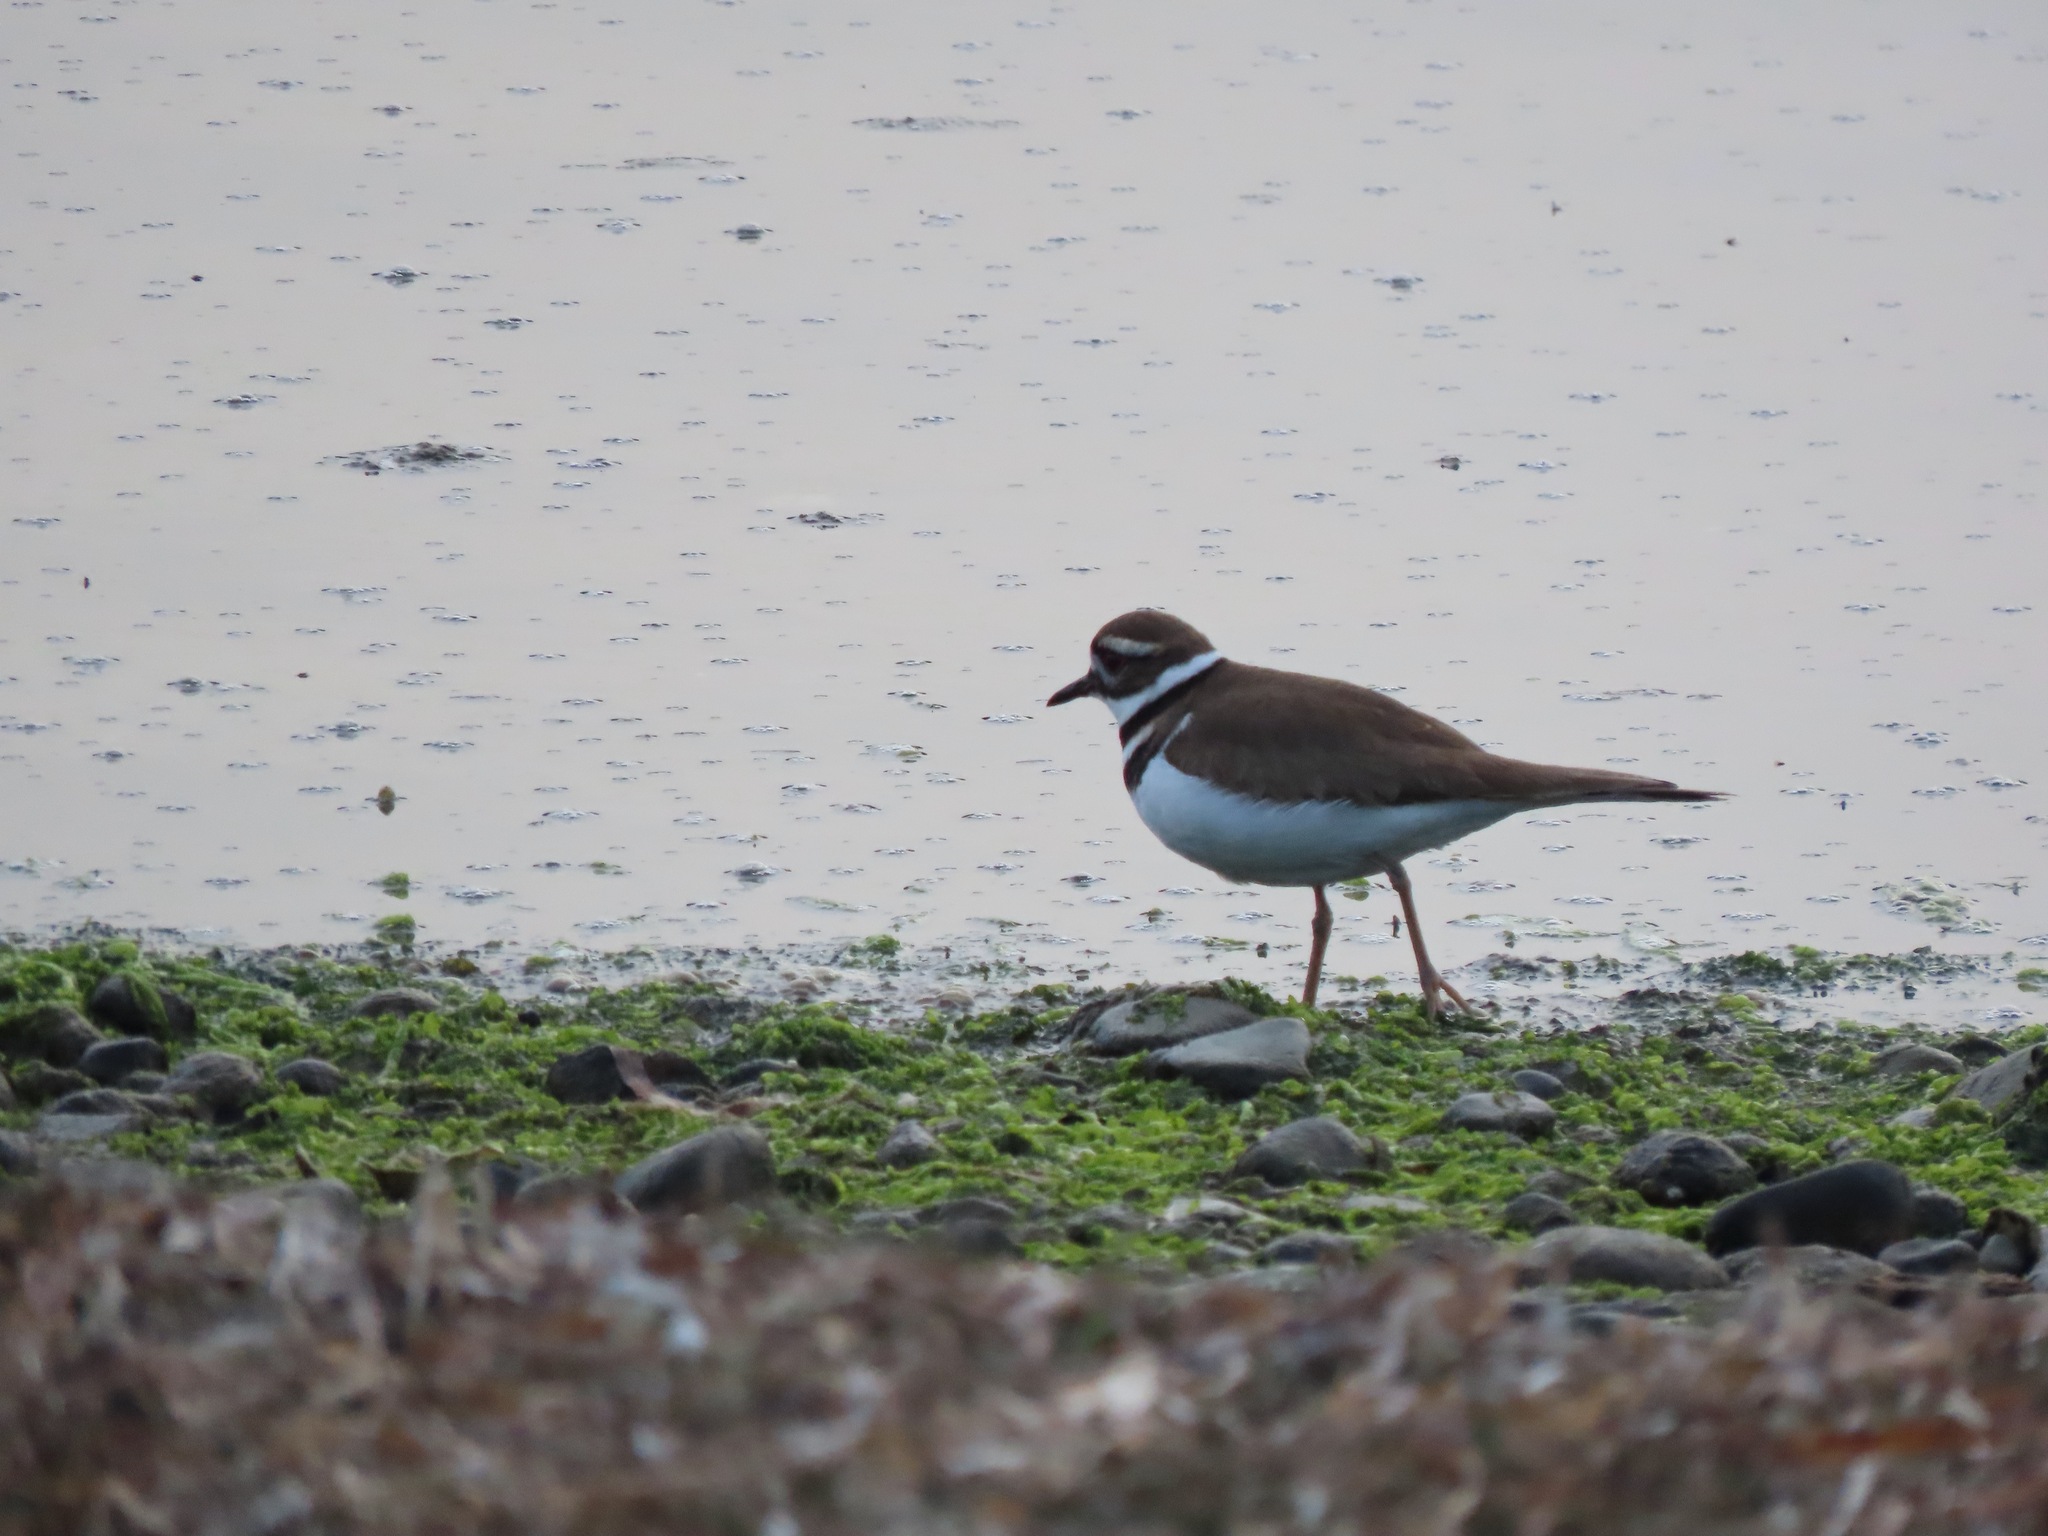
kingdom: Animalia
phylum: Chordata
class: Aves
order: Charadriiformes
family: Charadriidae
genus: Charadrius
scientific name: Charadrius vociferus
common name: Killdeer
